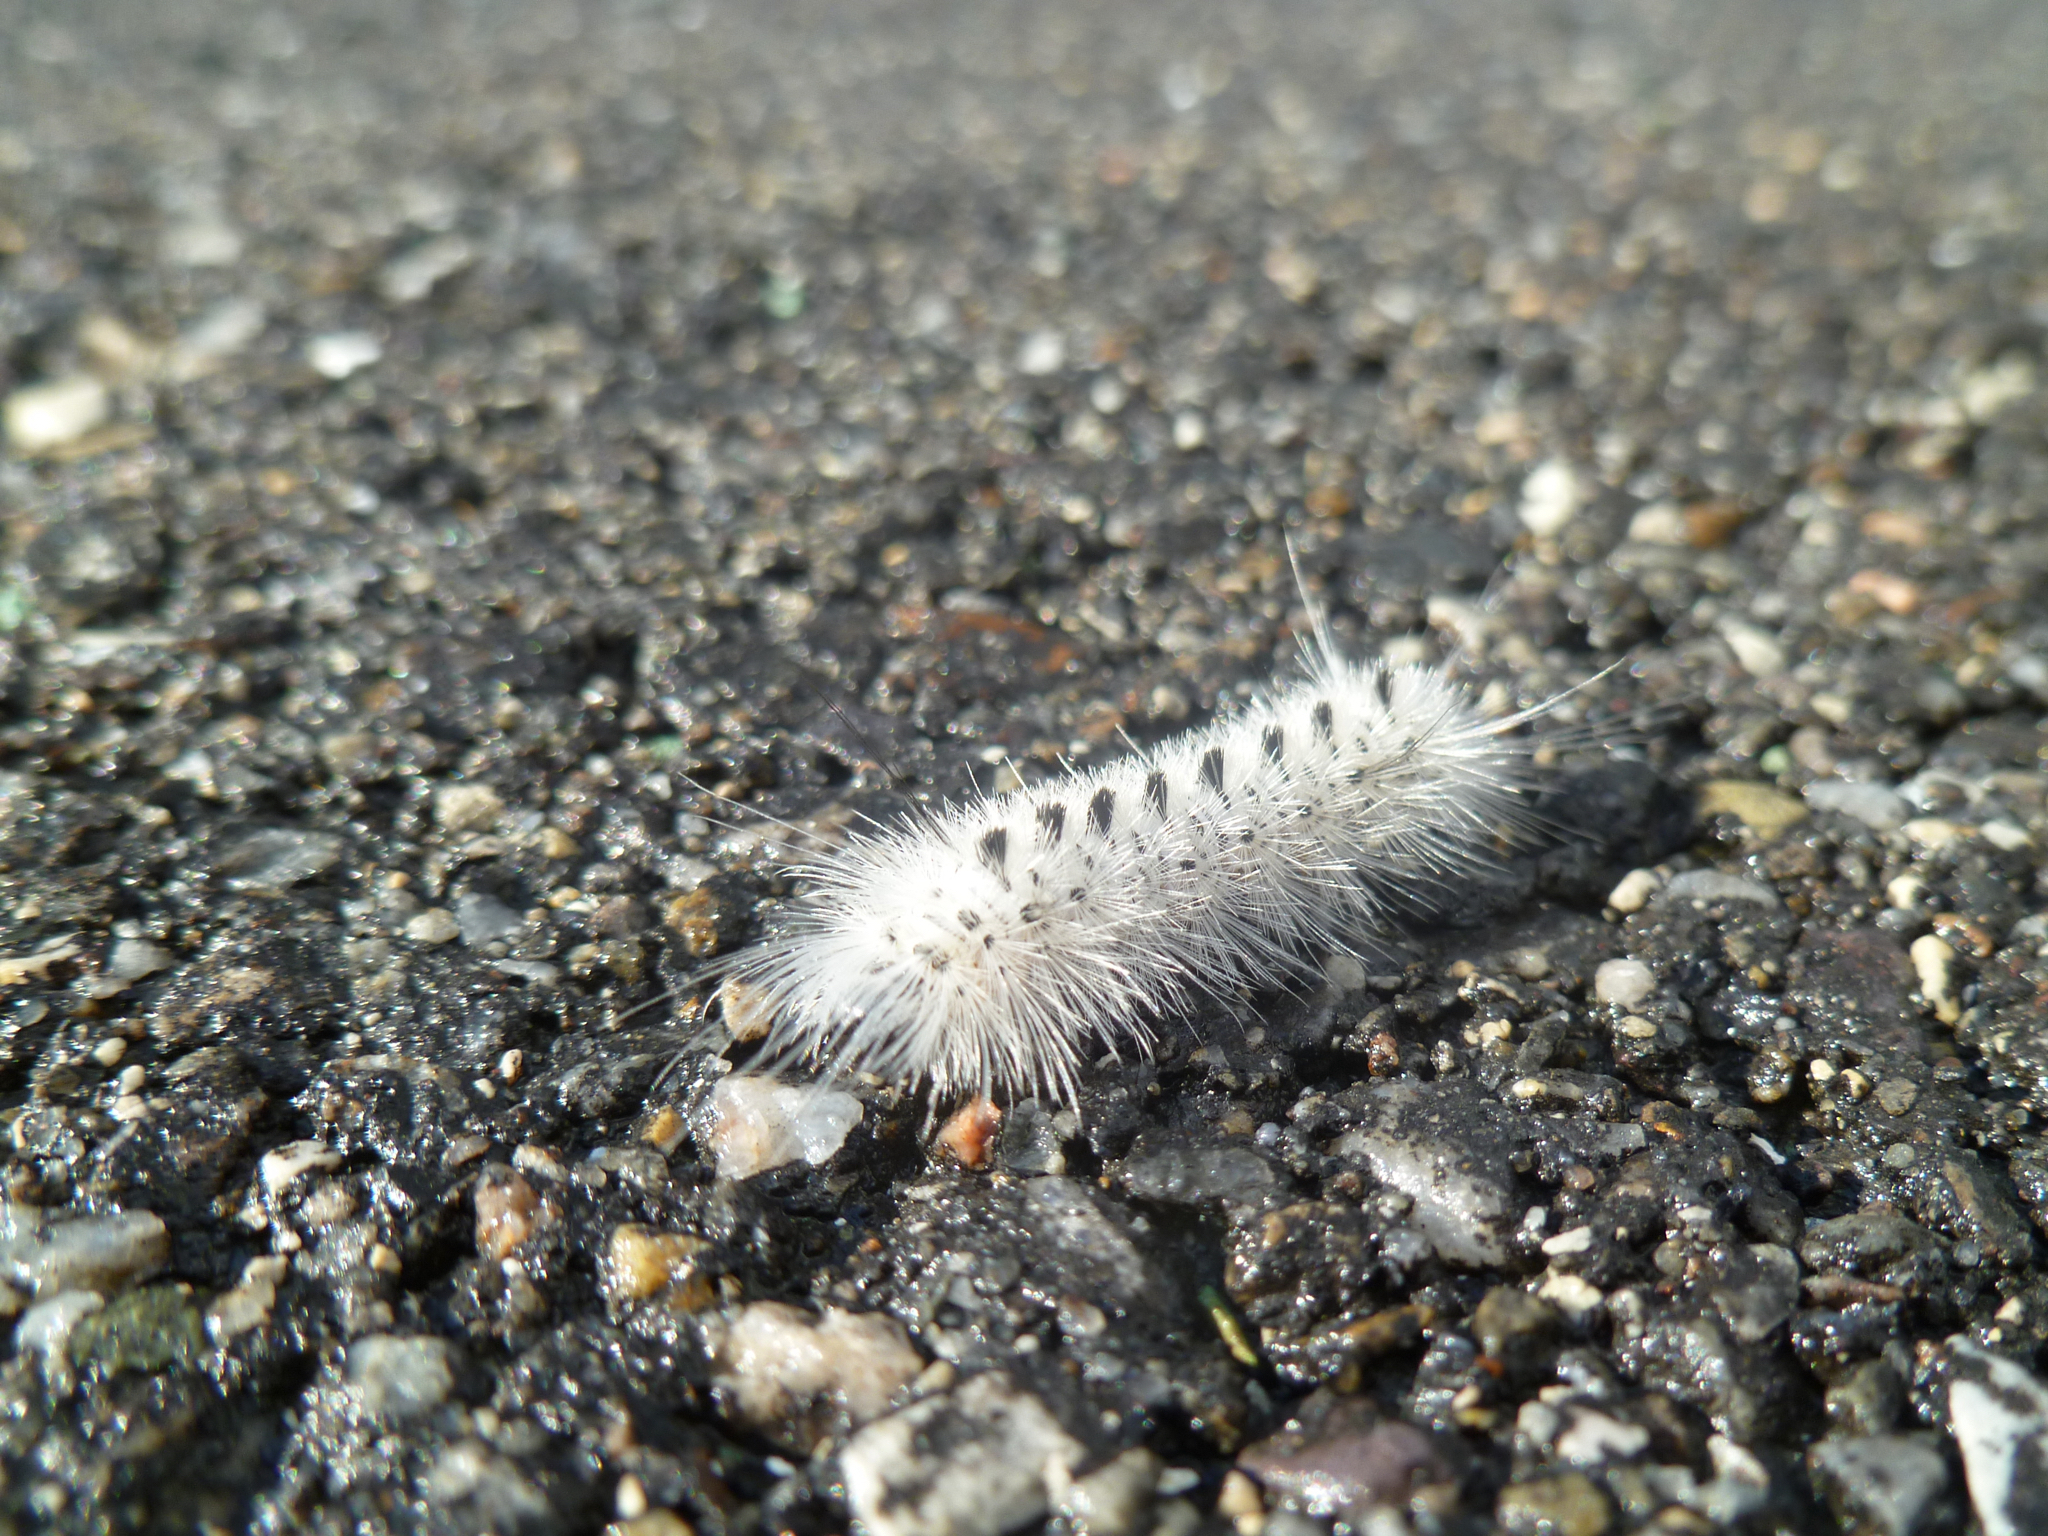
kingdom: Animalia
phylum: Arthropoda
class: Insecta
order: Lepidoptera
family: Erebidae
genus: Lophocampa
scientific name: Lophocampa caryae
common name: Hickory tussock moth
